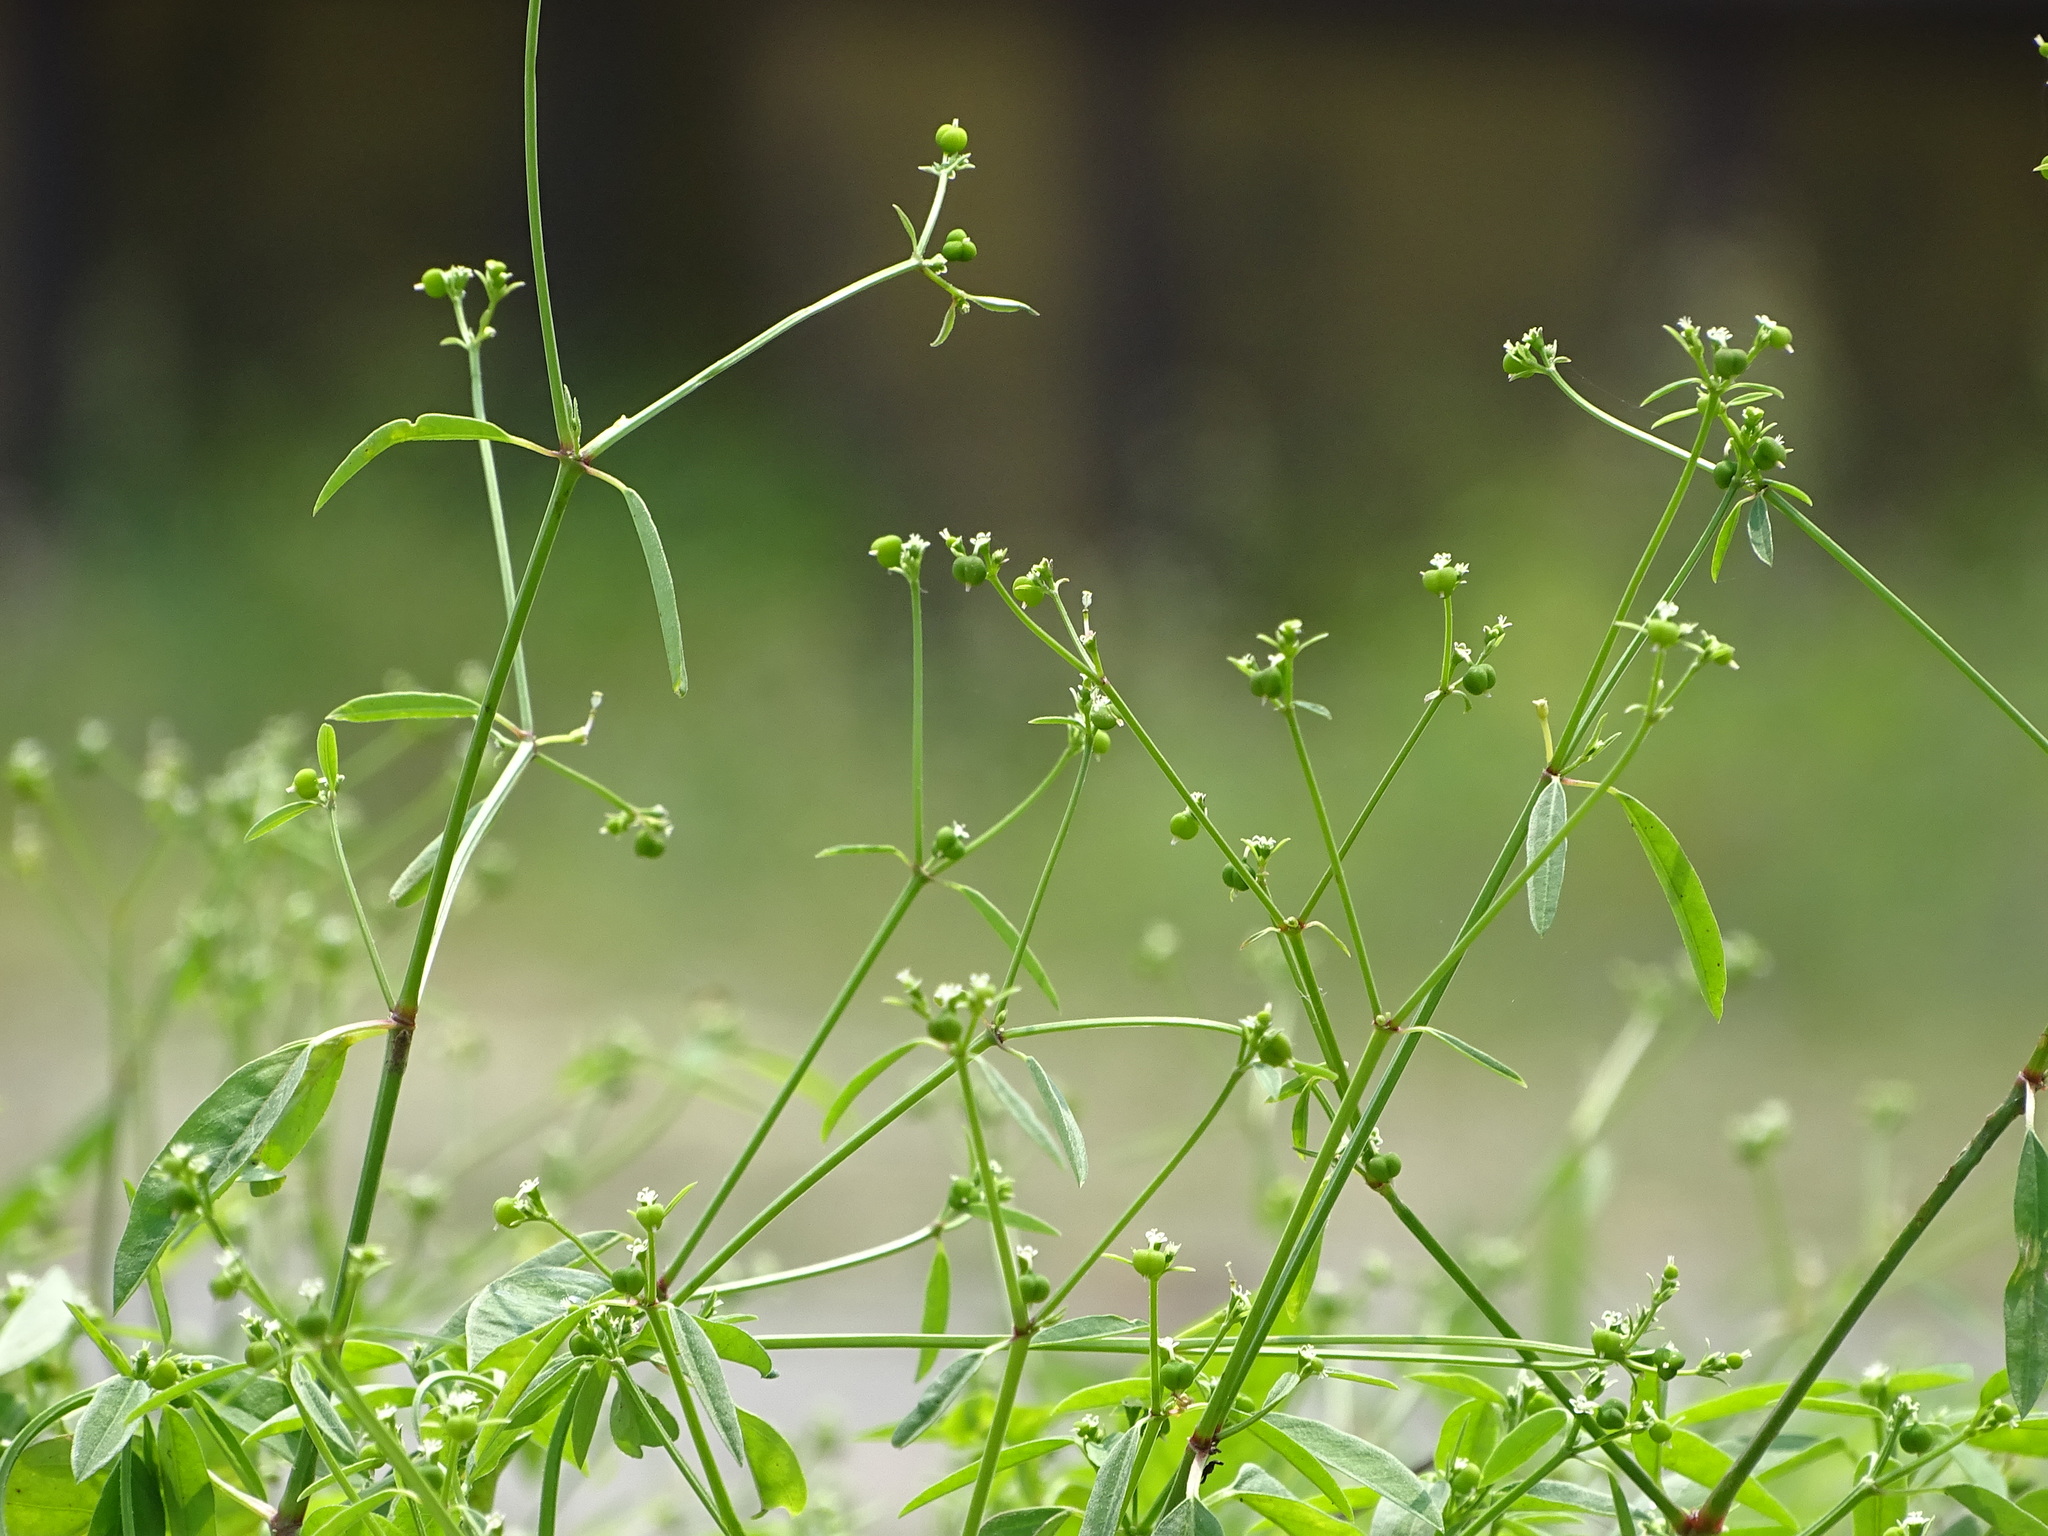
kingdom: Plantae
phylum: Tracheophyta
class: Magnoliopsida
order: Malpighiales
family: Euphorbiaceae
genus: Euphorbia
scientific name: Euphorbia graminea
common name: Grassleaf spurge
